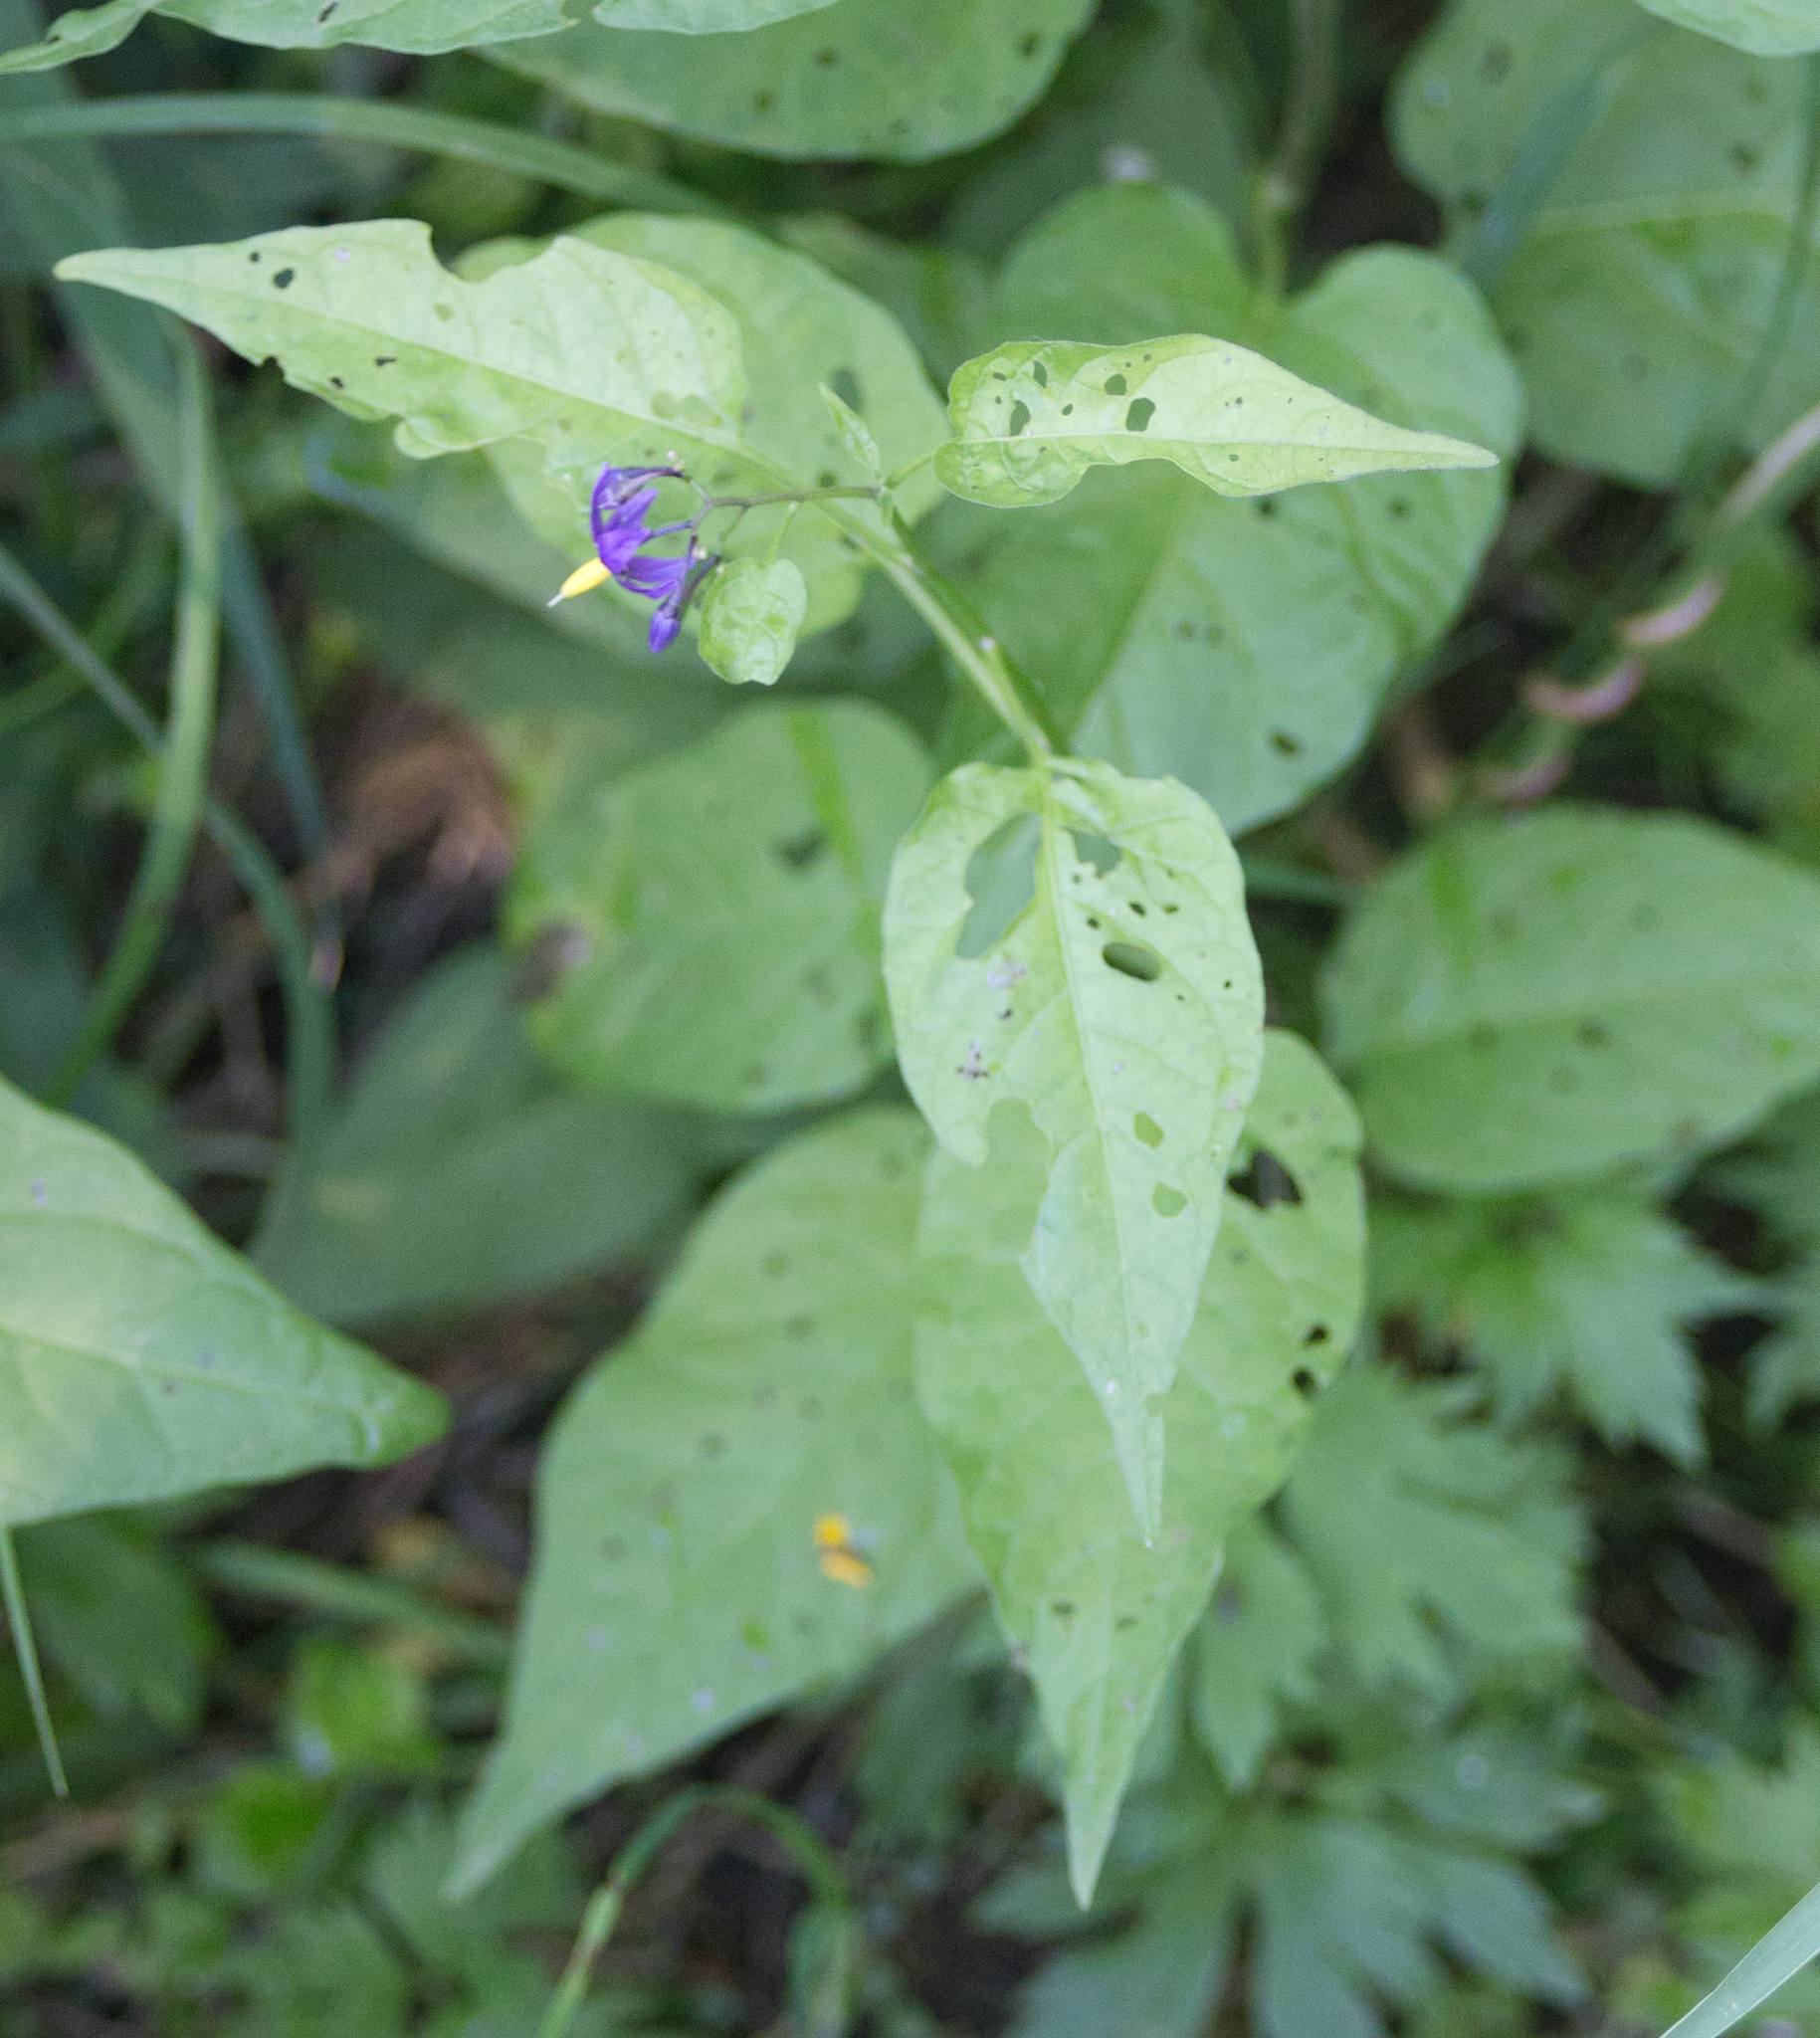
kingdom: Plantae
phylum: Tracheophyta
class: Magnoliopsida
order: Solanales
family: Solanaceae
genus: Solanum
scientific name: Solanum dulcamara
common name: Climbing nightshade
